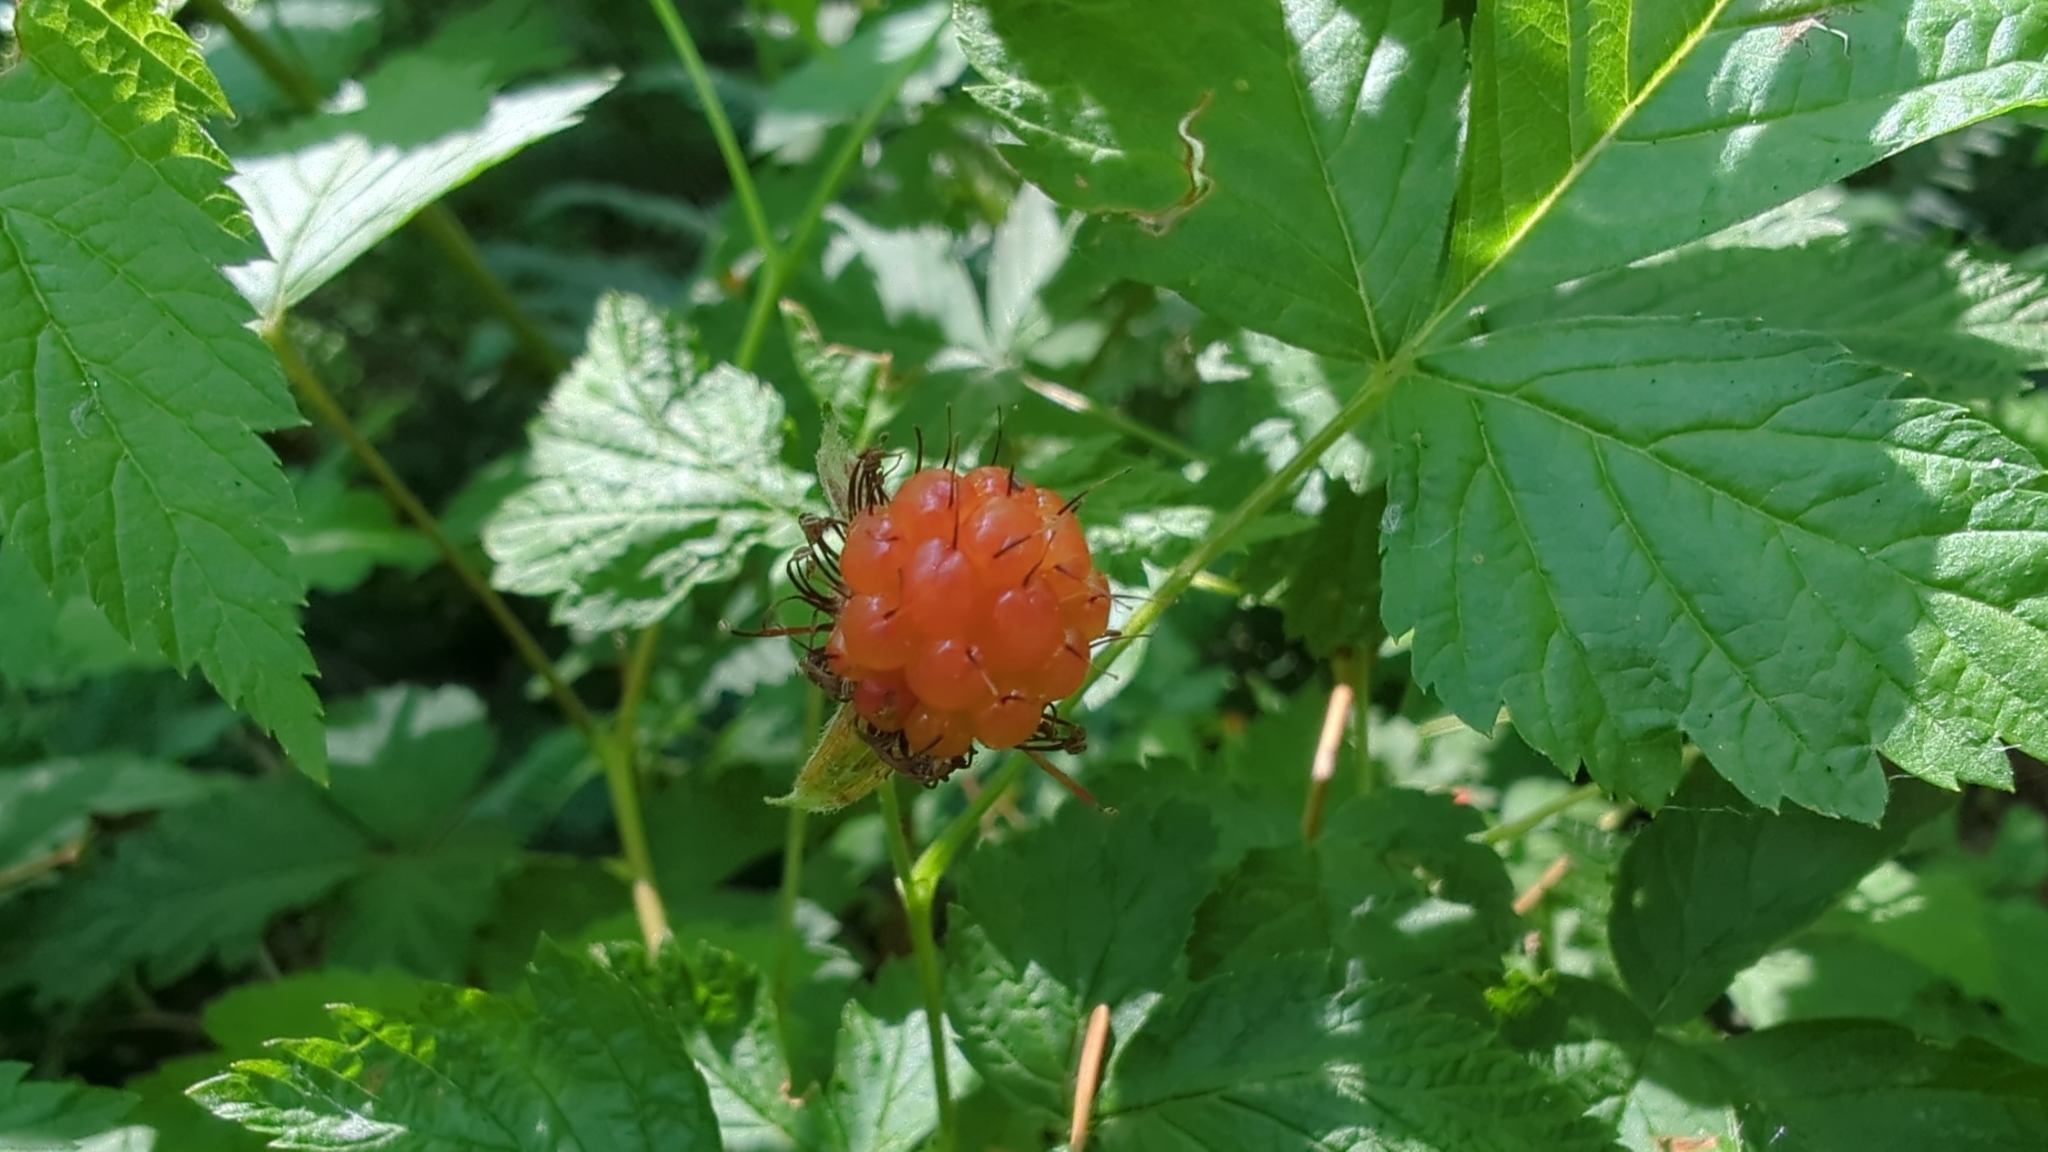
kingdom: Plantae
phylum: Tracheophyta
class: Magnoliopsida
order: Rosales
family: Rosaceae
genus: Rubus
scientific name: Rubus spectabilis
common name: Salmonberry
